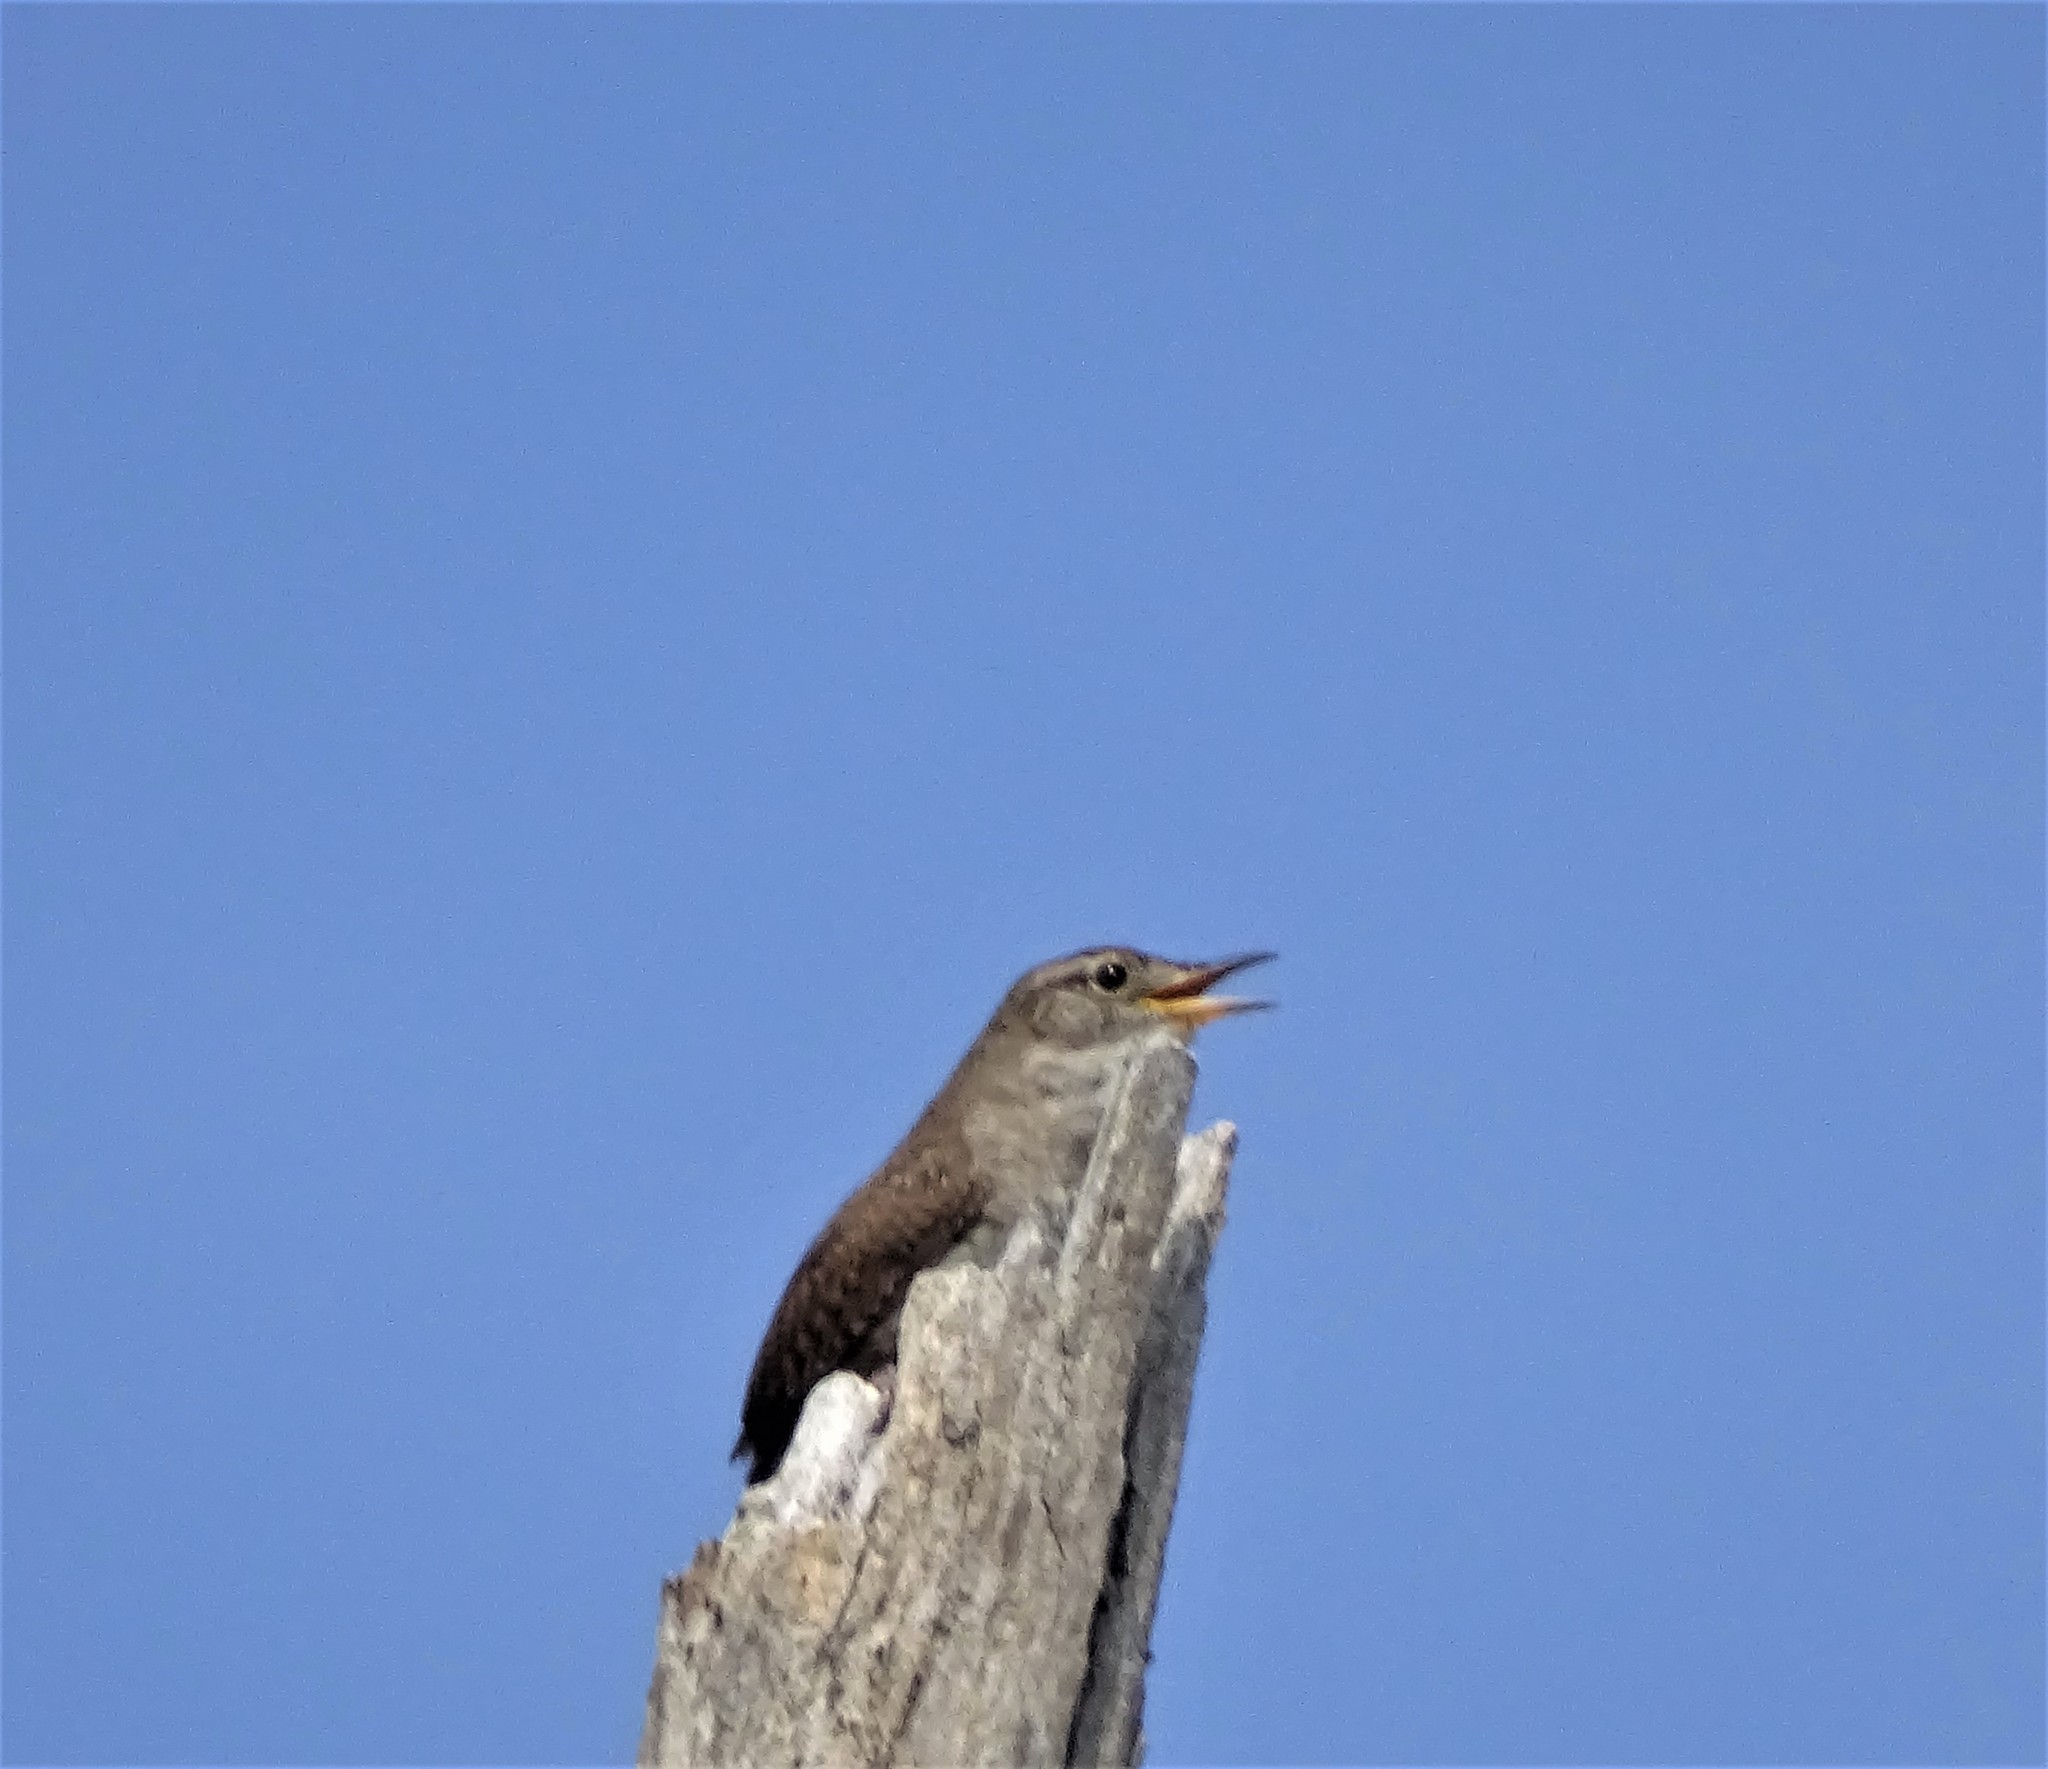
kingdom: Animalia
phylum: Chordata
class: Aves
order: Passeriformes
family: Troglodytidae
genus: Troglodytes
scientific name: Troglodytes aedon
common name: House wren
